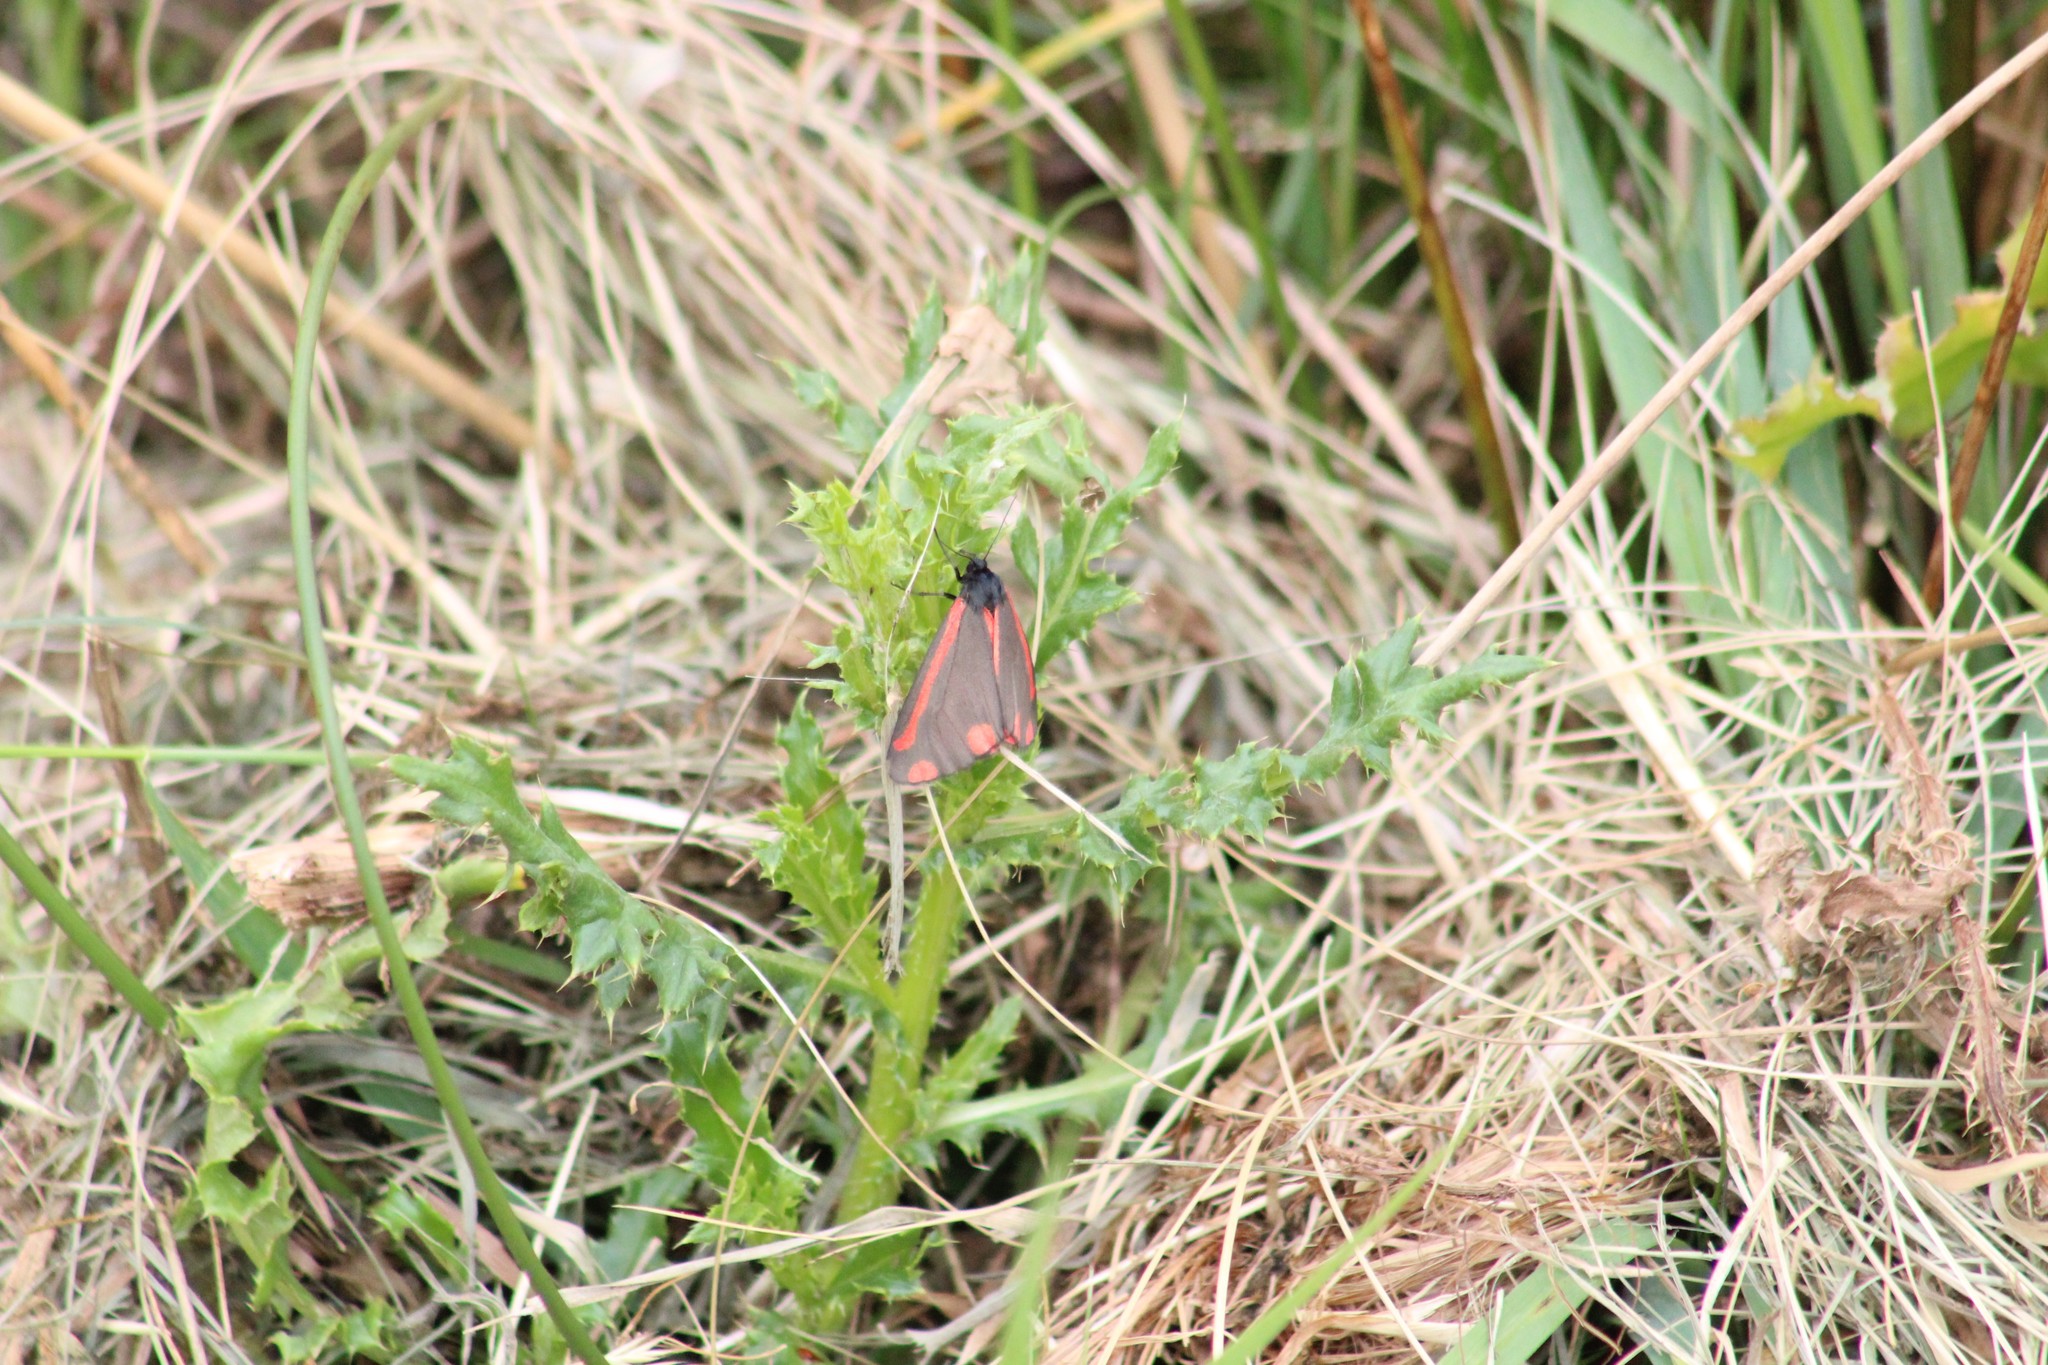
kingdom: Animalia
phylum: Arthropoda
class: Insecta
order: Lepidoptera
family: Erebidae
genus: Tyria
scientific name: Tyria jacobaeae
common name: Cinnabar
